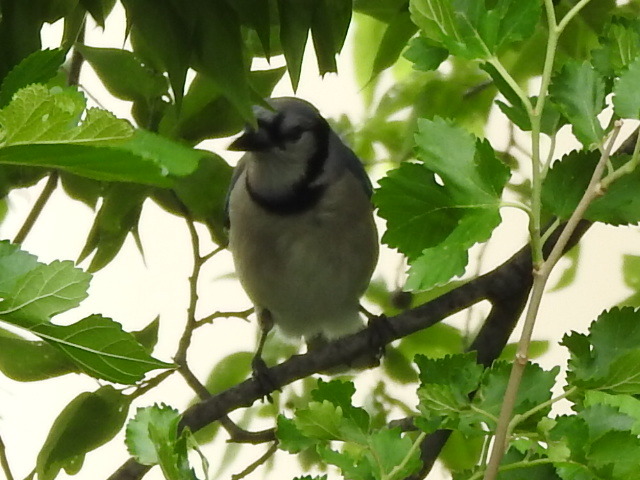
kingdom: Animalia
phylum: Chordata
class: Aves
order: Passeriformes
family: Corvidae
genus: Cyanocitta
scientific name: Cyanocitta cristata
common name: Blue jay
